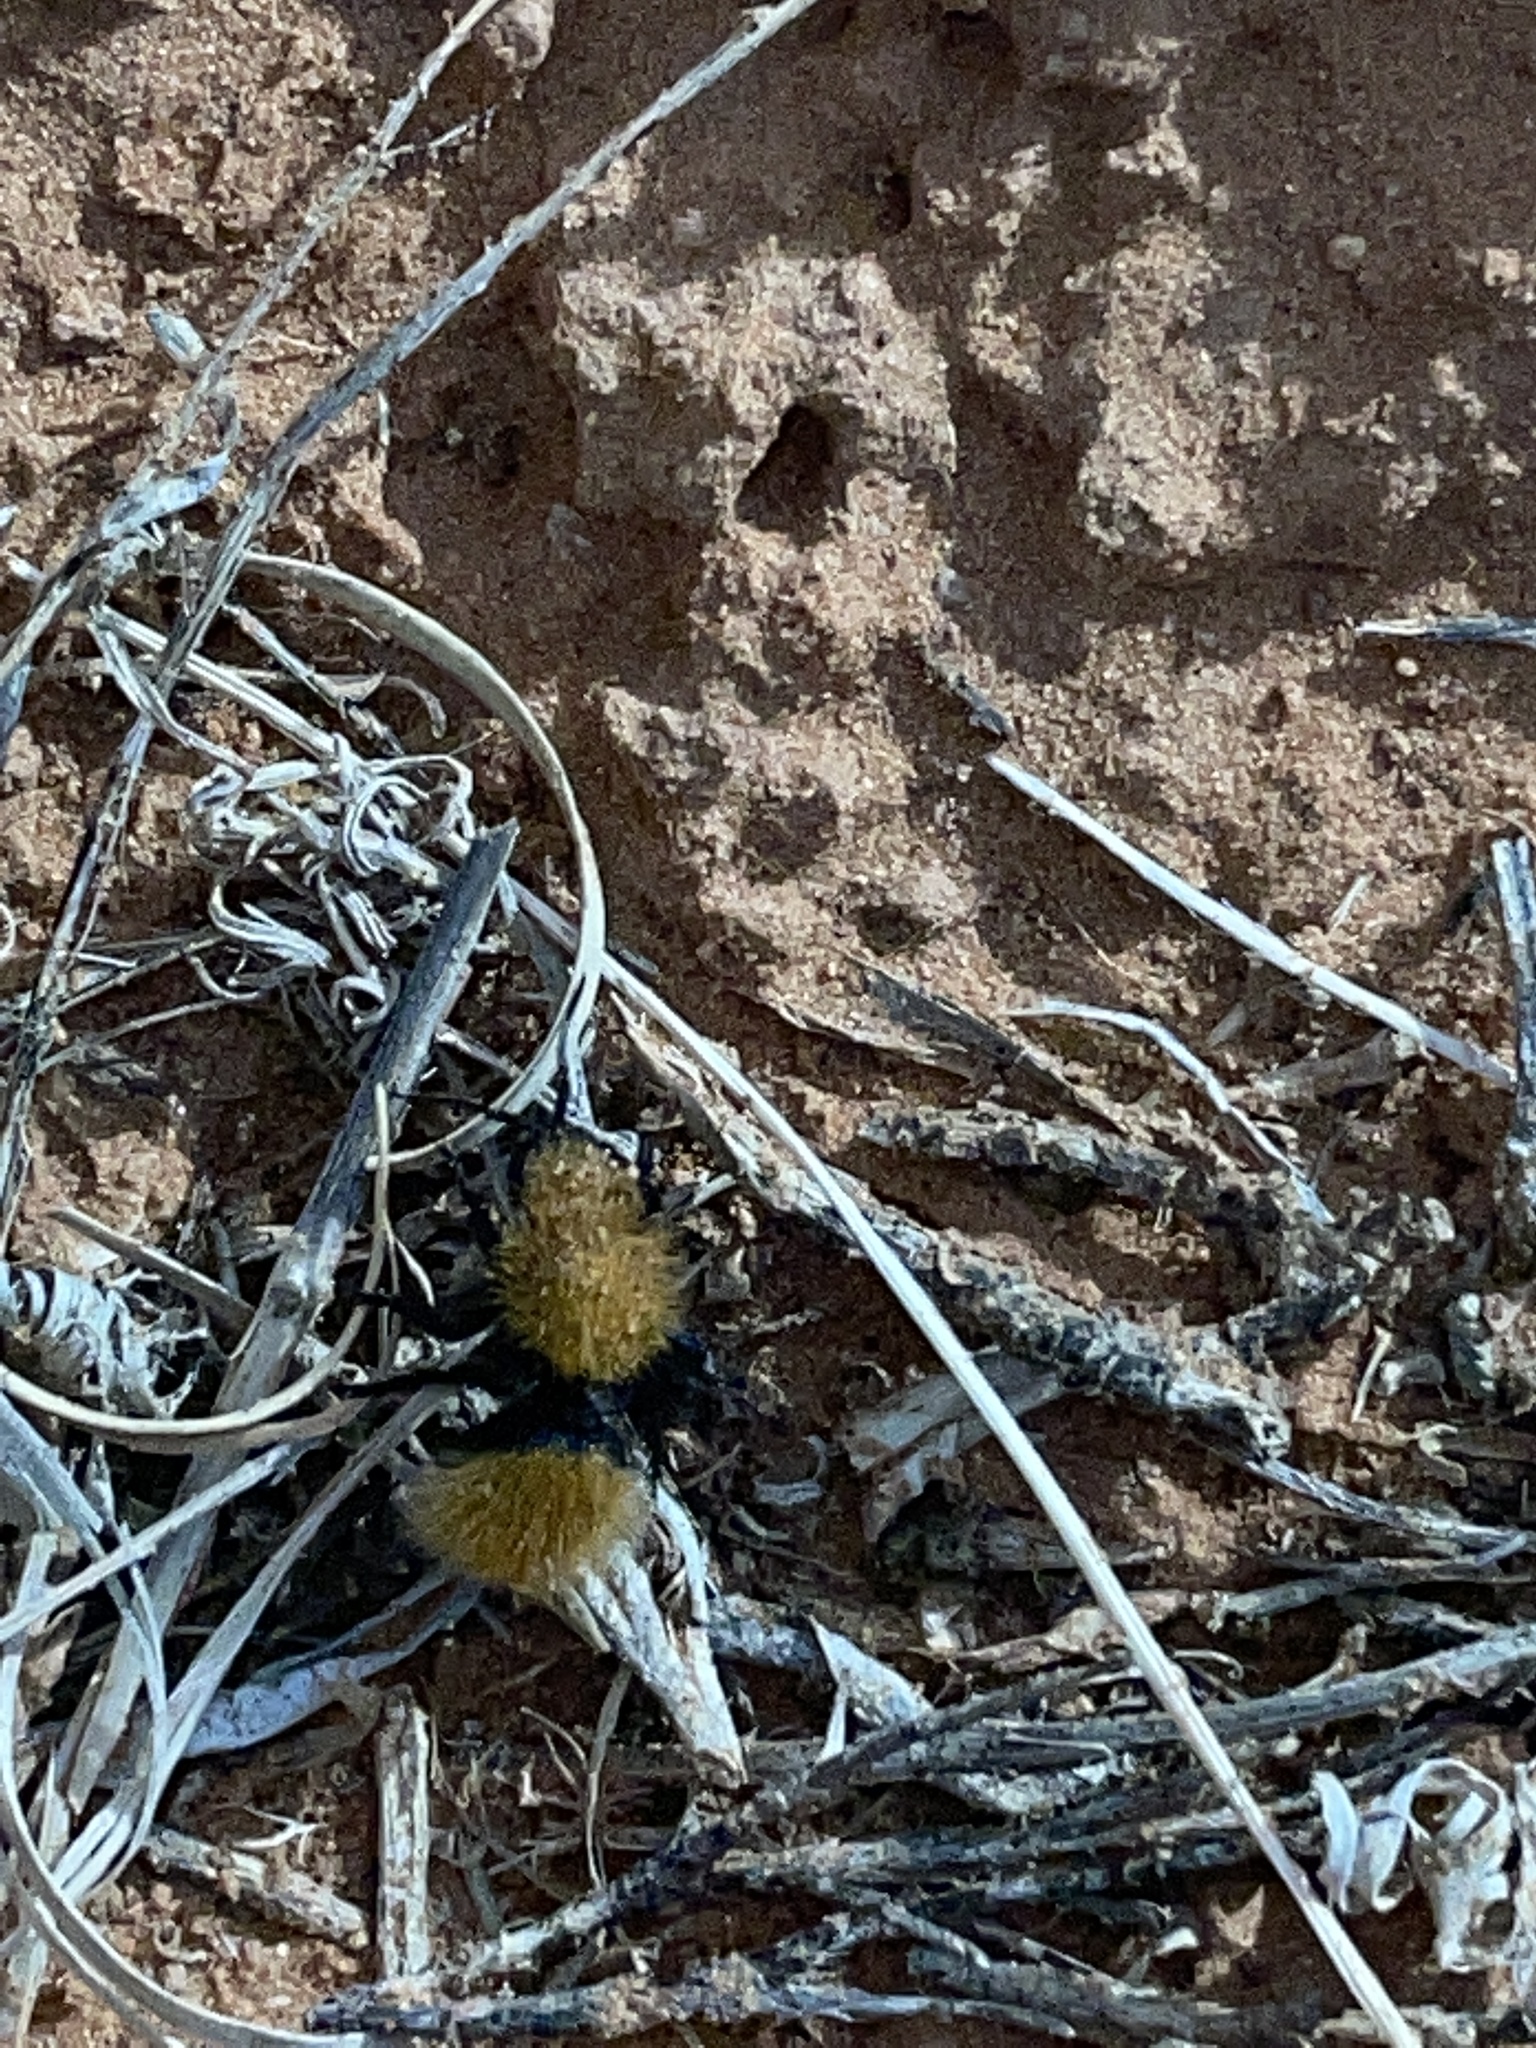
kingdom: Animalia
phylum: Arthropoda
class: Insecta
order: Hymenoptera
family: Mutillidae
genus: Dasymutilla
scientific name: Dasymutilla vestita
